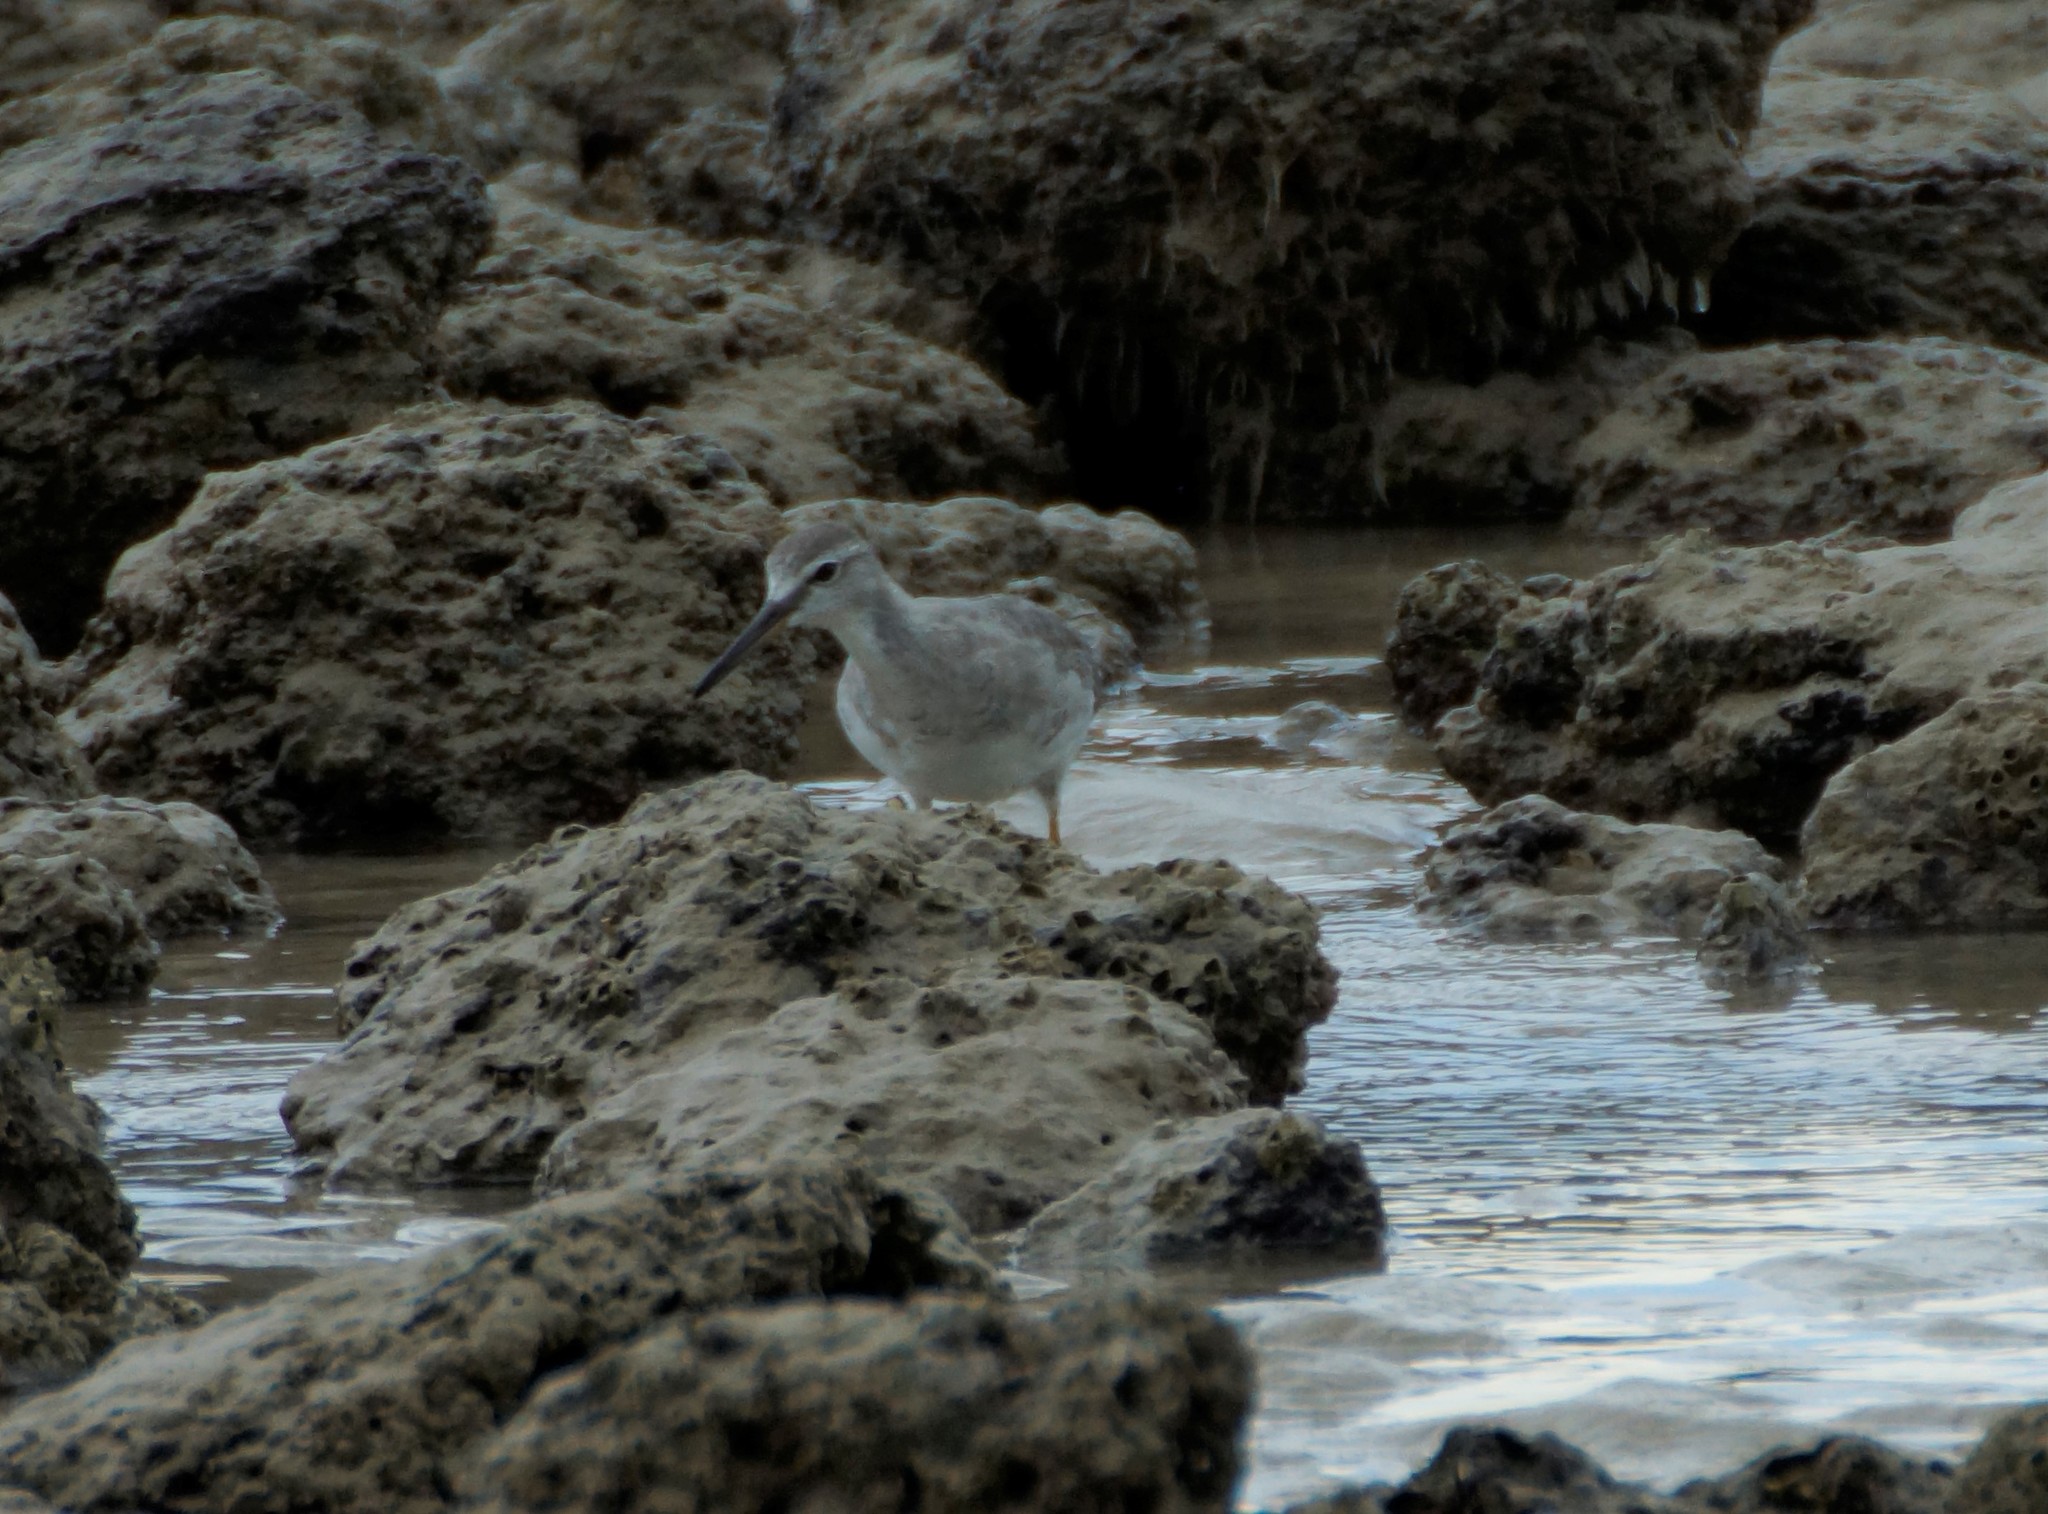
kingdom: Animalia
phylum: Chordata
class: Aves
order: Charadriiformes
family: Scolopacidae
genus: Tringa
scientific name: Tringa brevipes
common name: Grey-tailed tattler
